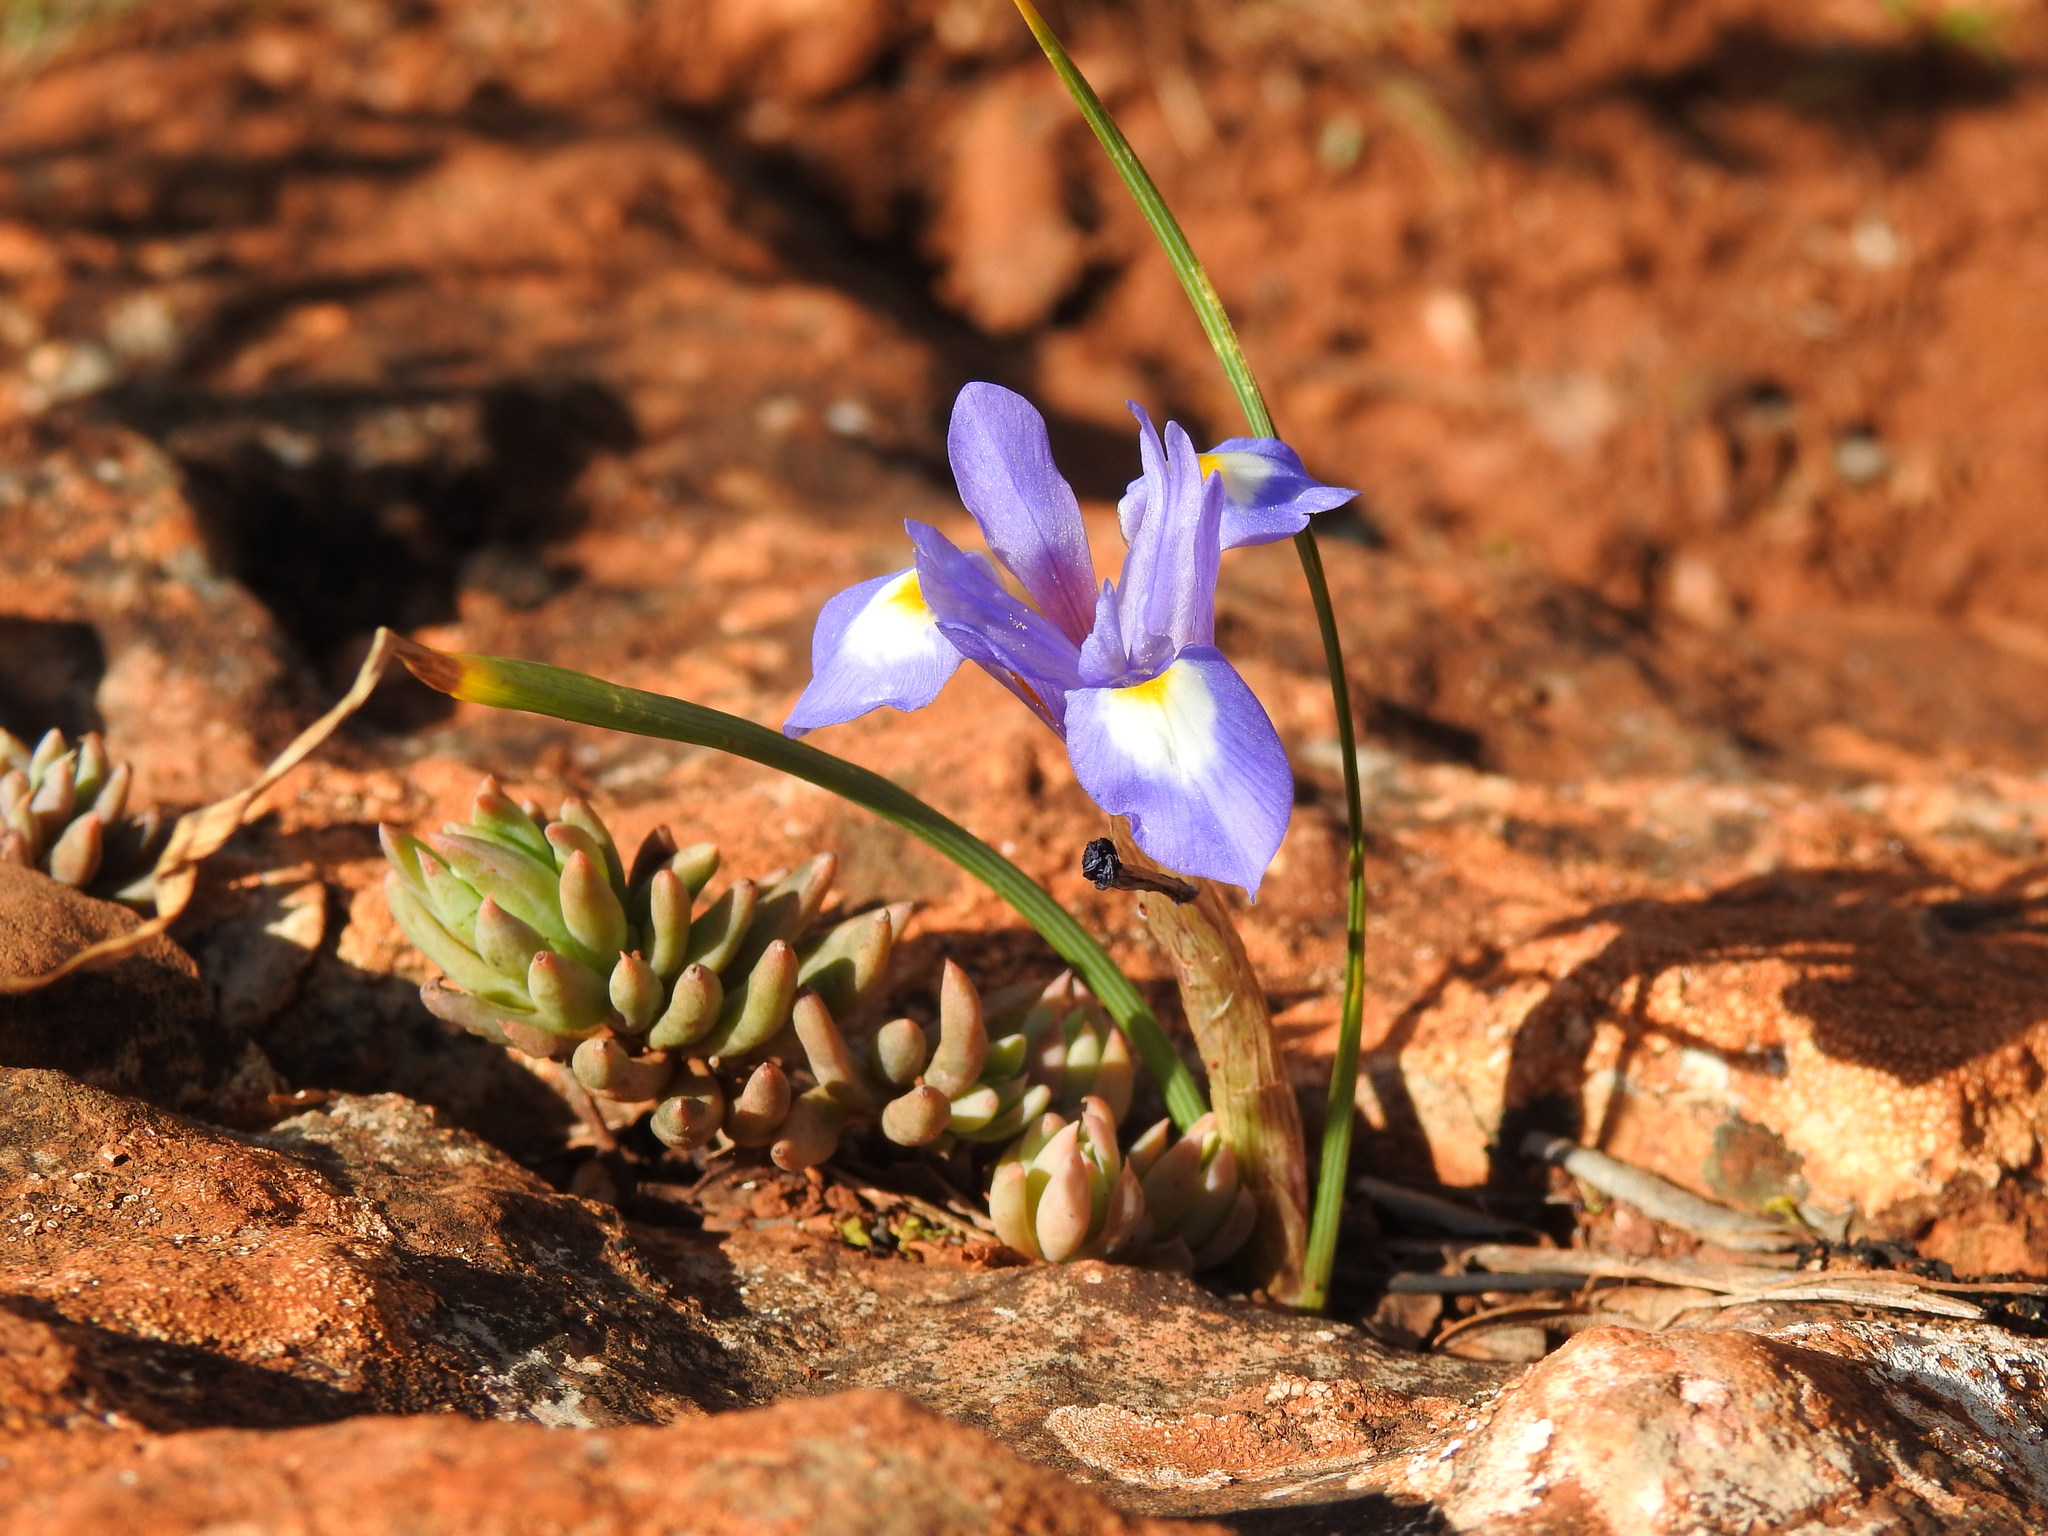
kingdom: Plantae
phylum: Tracheophyta
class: Liliopsida
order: Asparagales
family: Iridaceae
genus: Moraea
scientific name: Moraea sisyrinchium
